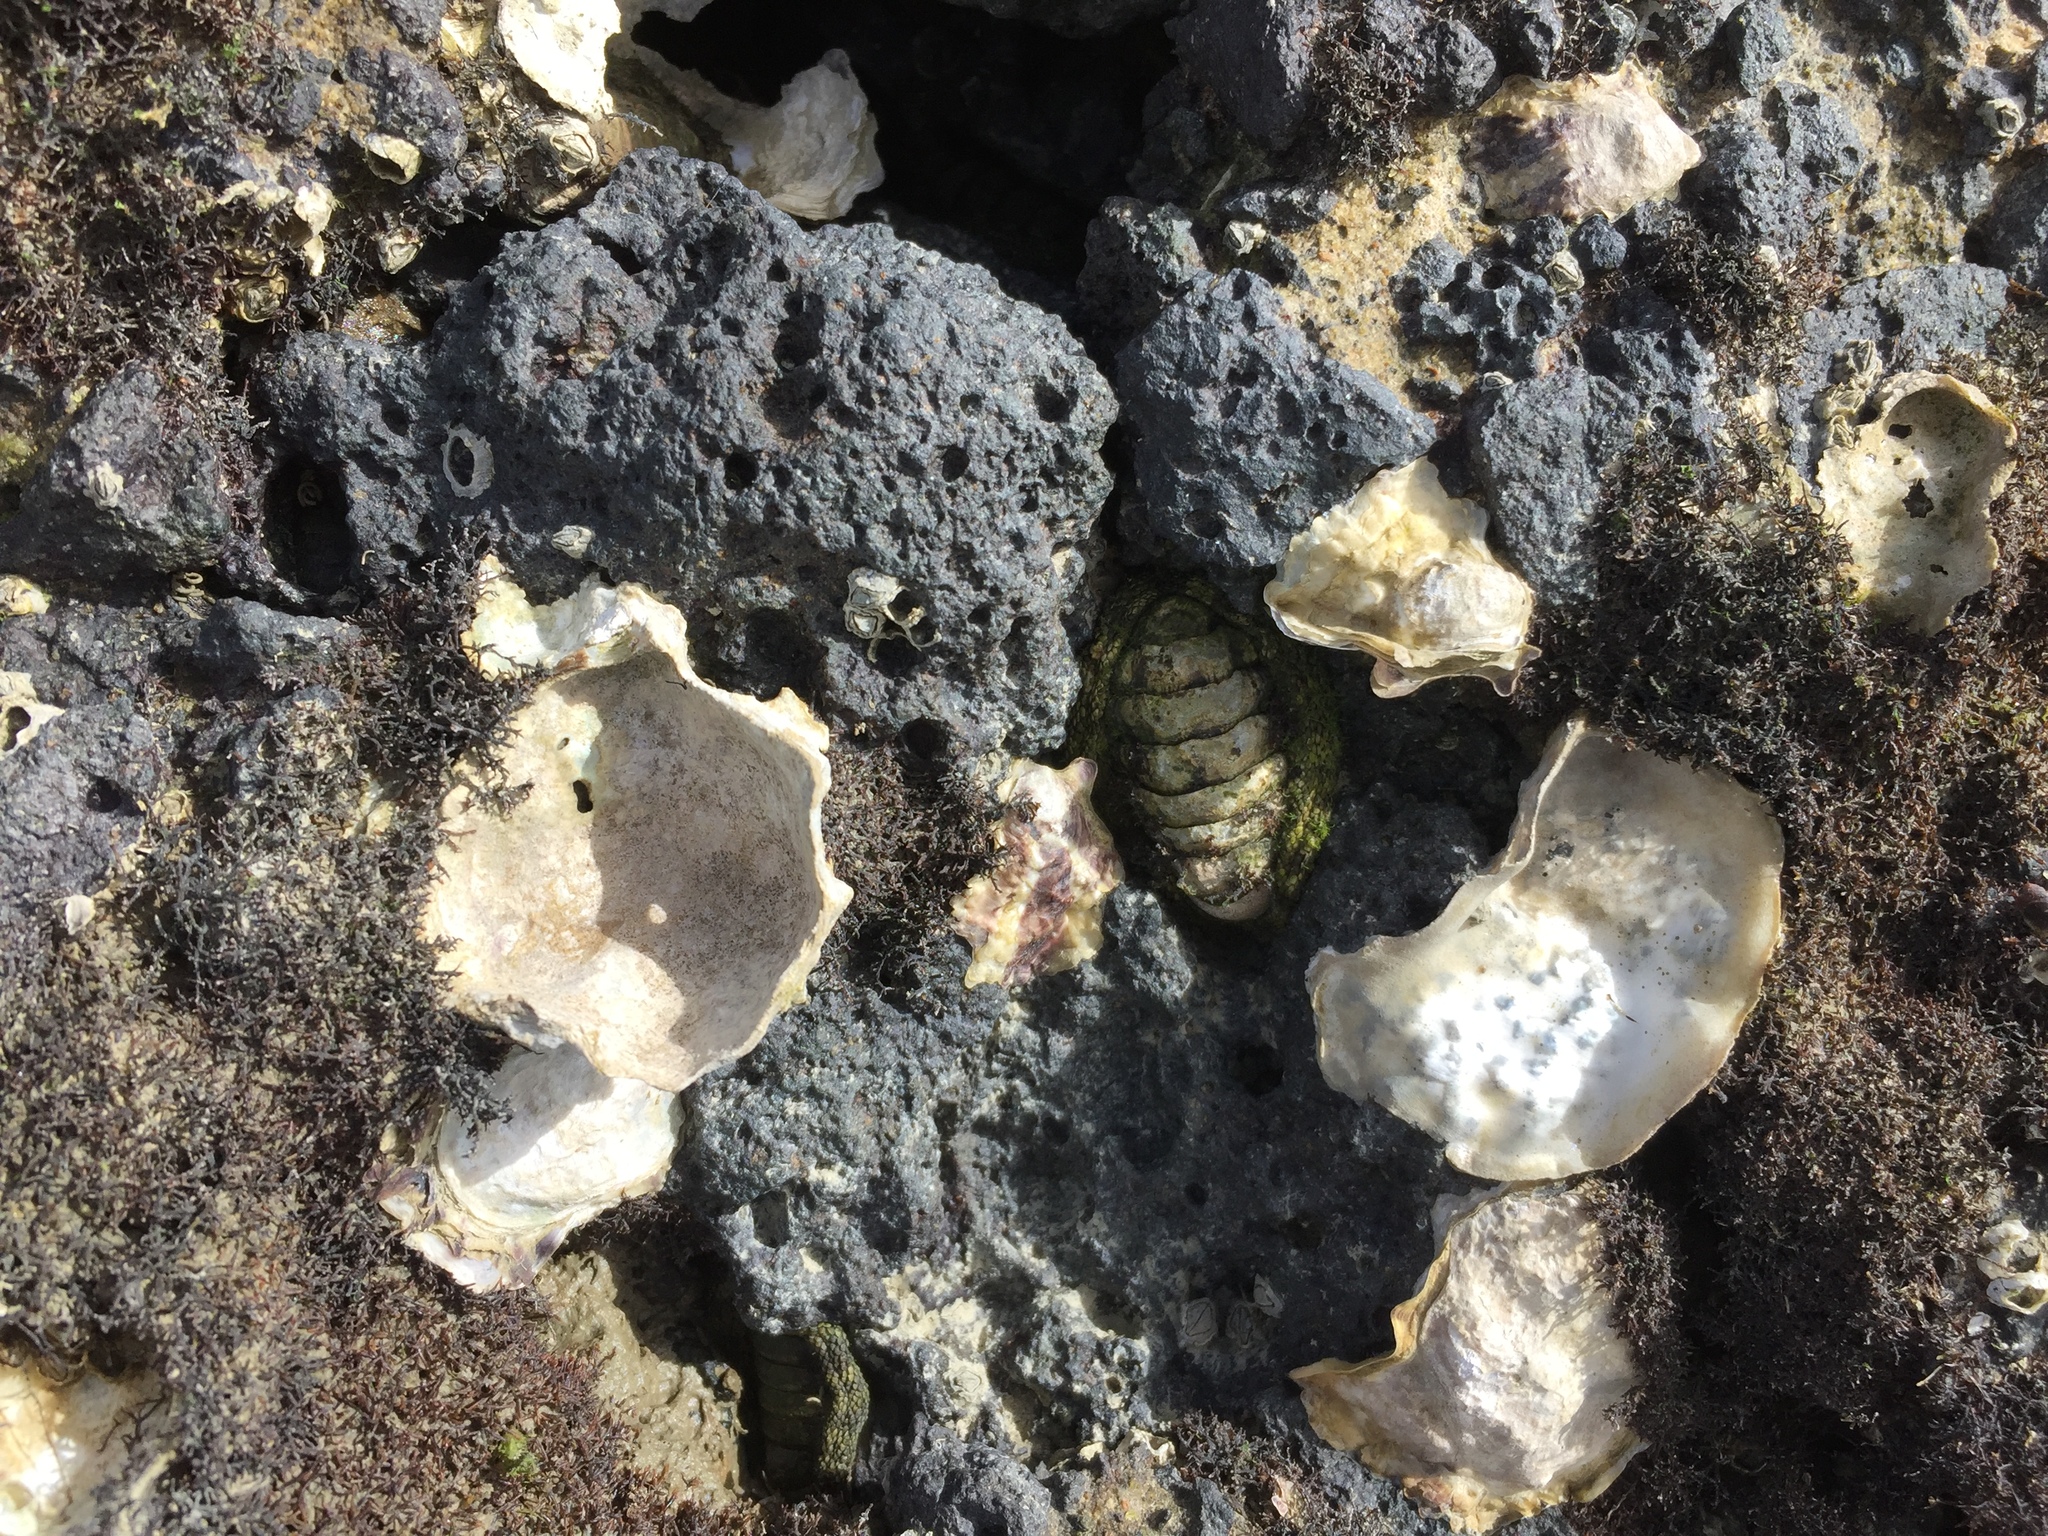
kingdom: Animalia
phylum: Mollusca
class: Polyplacophora
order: Chitonida
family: Chitonidae
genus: Sypharochiton
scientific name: Sypharochiton pelliserpentis
